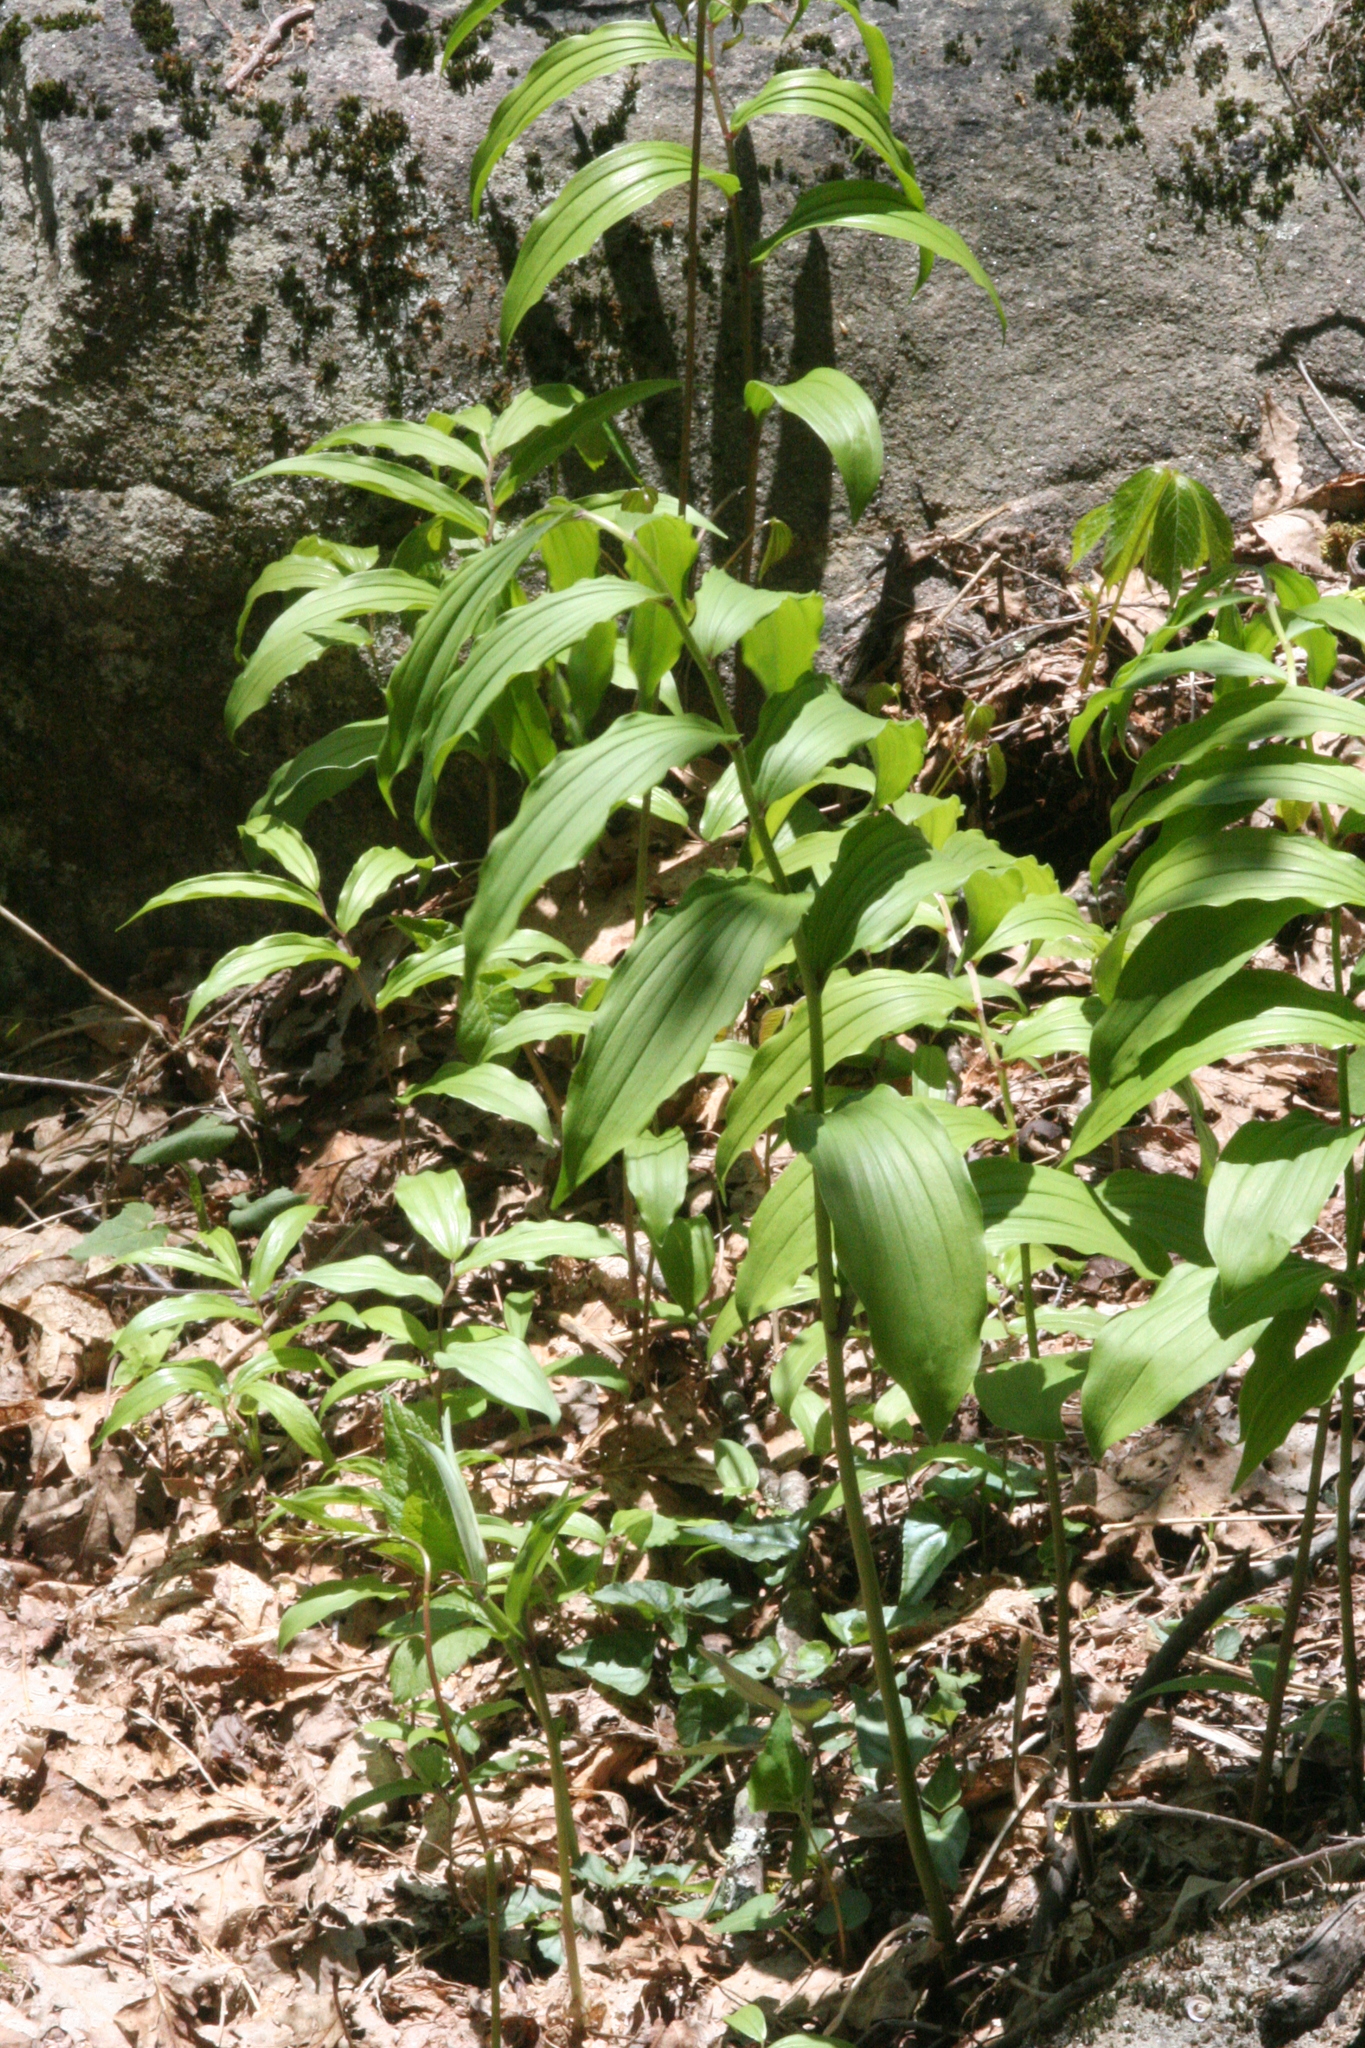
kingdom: Plantae
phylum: Tracheophyta
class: Liliopsida
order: Asparagales
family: Asparagaceae
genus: Maianthemum
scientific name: Maianthemum racemosum
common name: False spikenard
